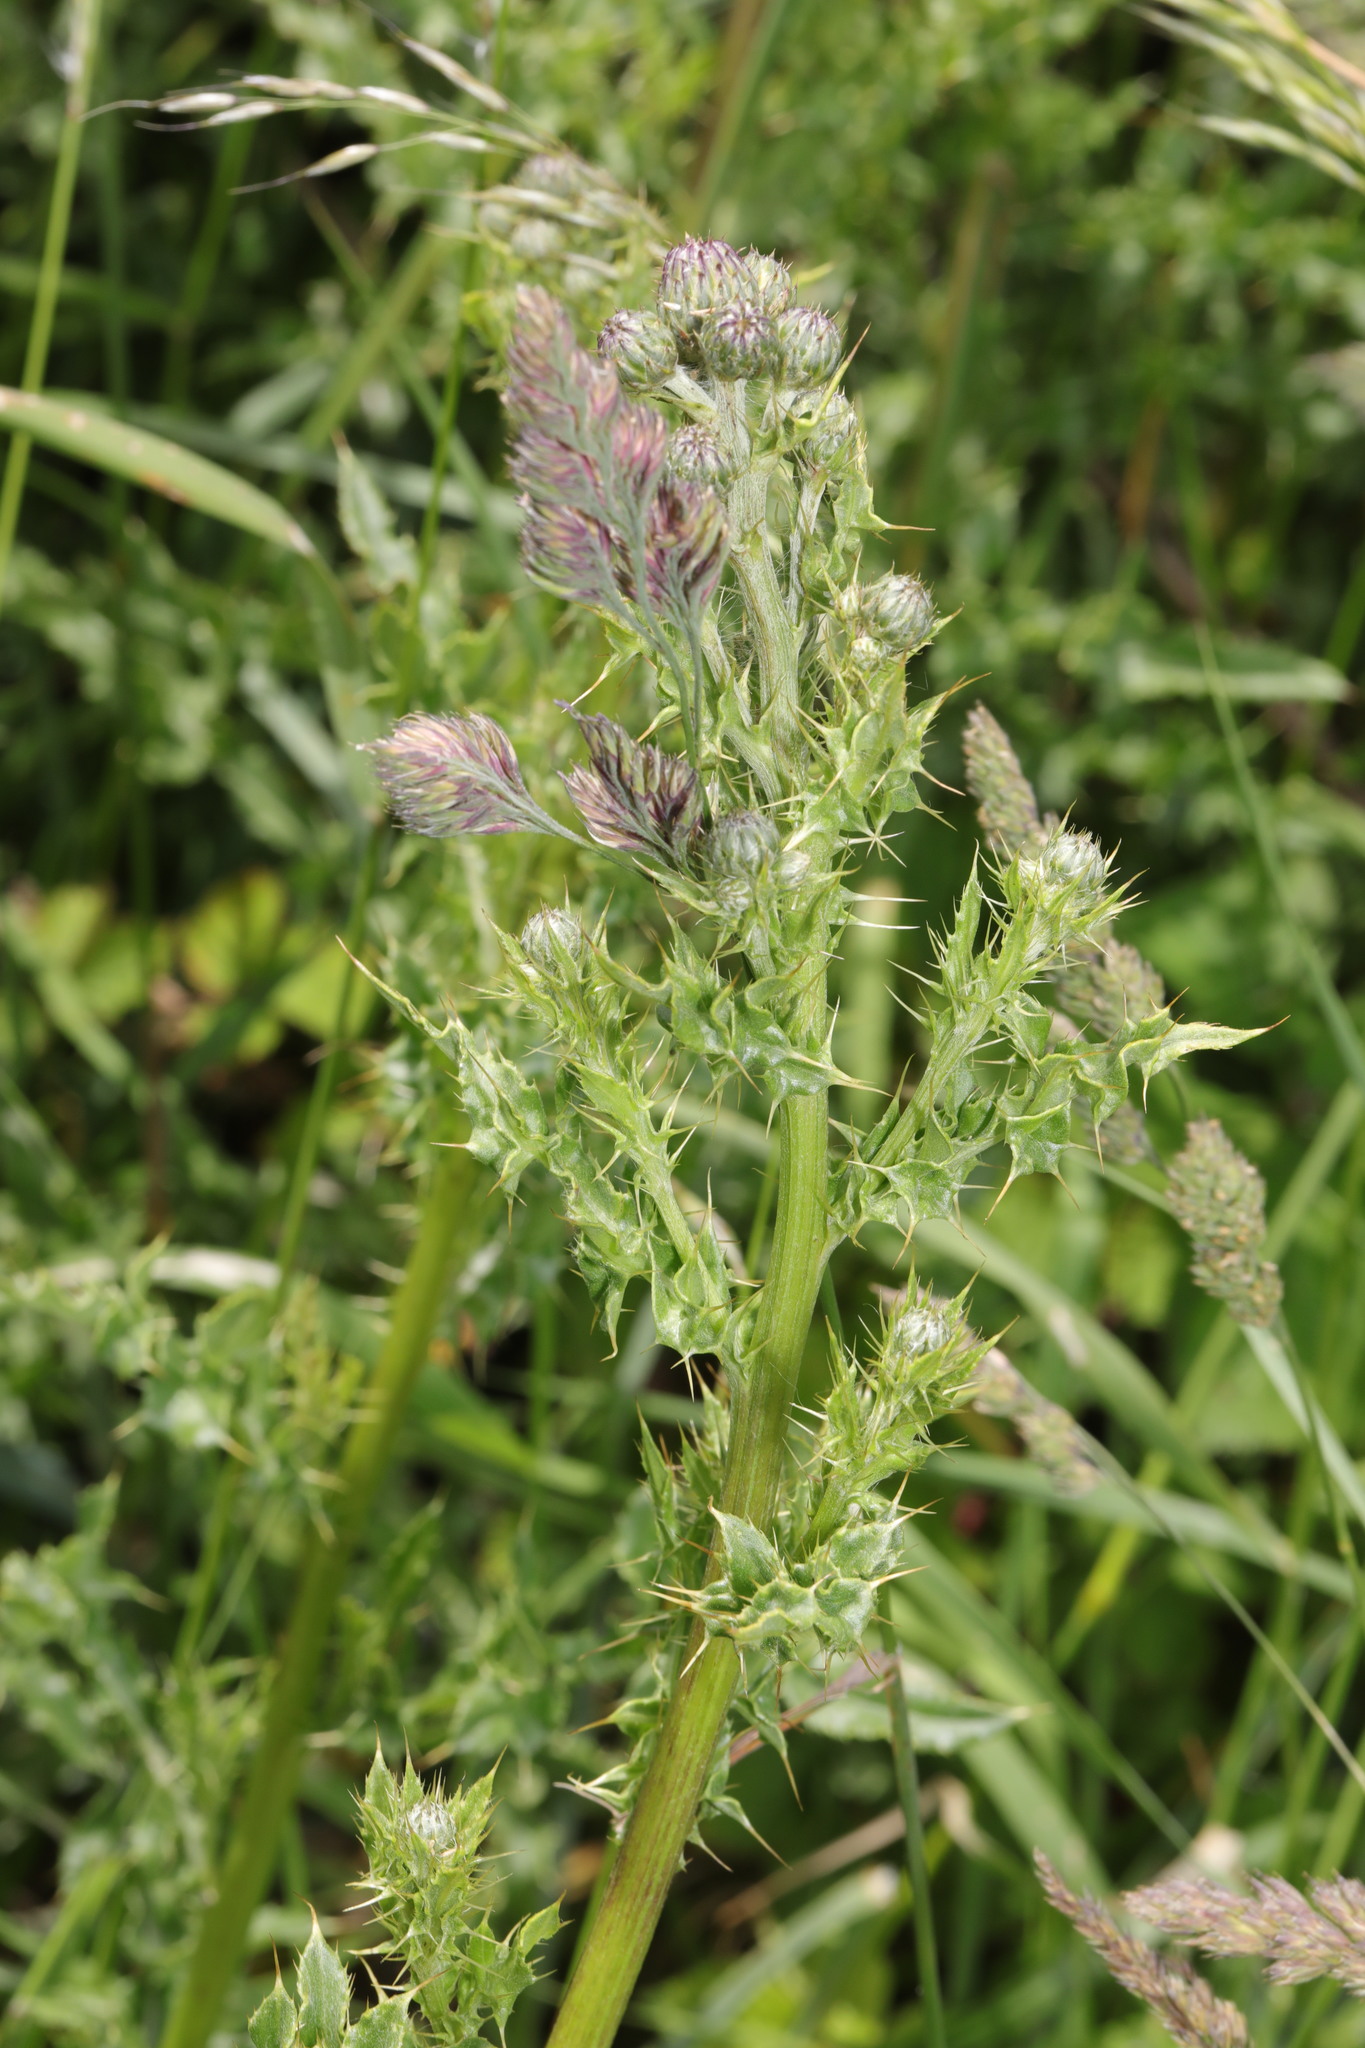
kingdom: Plantae
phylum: Tracheophyta
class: Magnoliopsida
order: Asterales
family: Asteraceae
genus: Cirsium
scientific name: Cirsium arvense
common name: Creeping thistle
